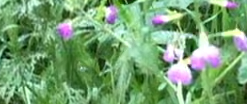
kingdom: Plantae
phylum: Tracheophyta
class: Magnoliopsida
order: Brassicales
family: Brassicaceae
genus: Raphanus
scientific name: Raphanus sativus
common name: Cultivated radish
